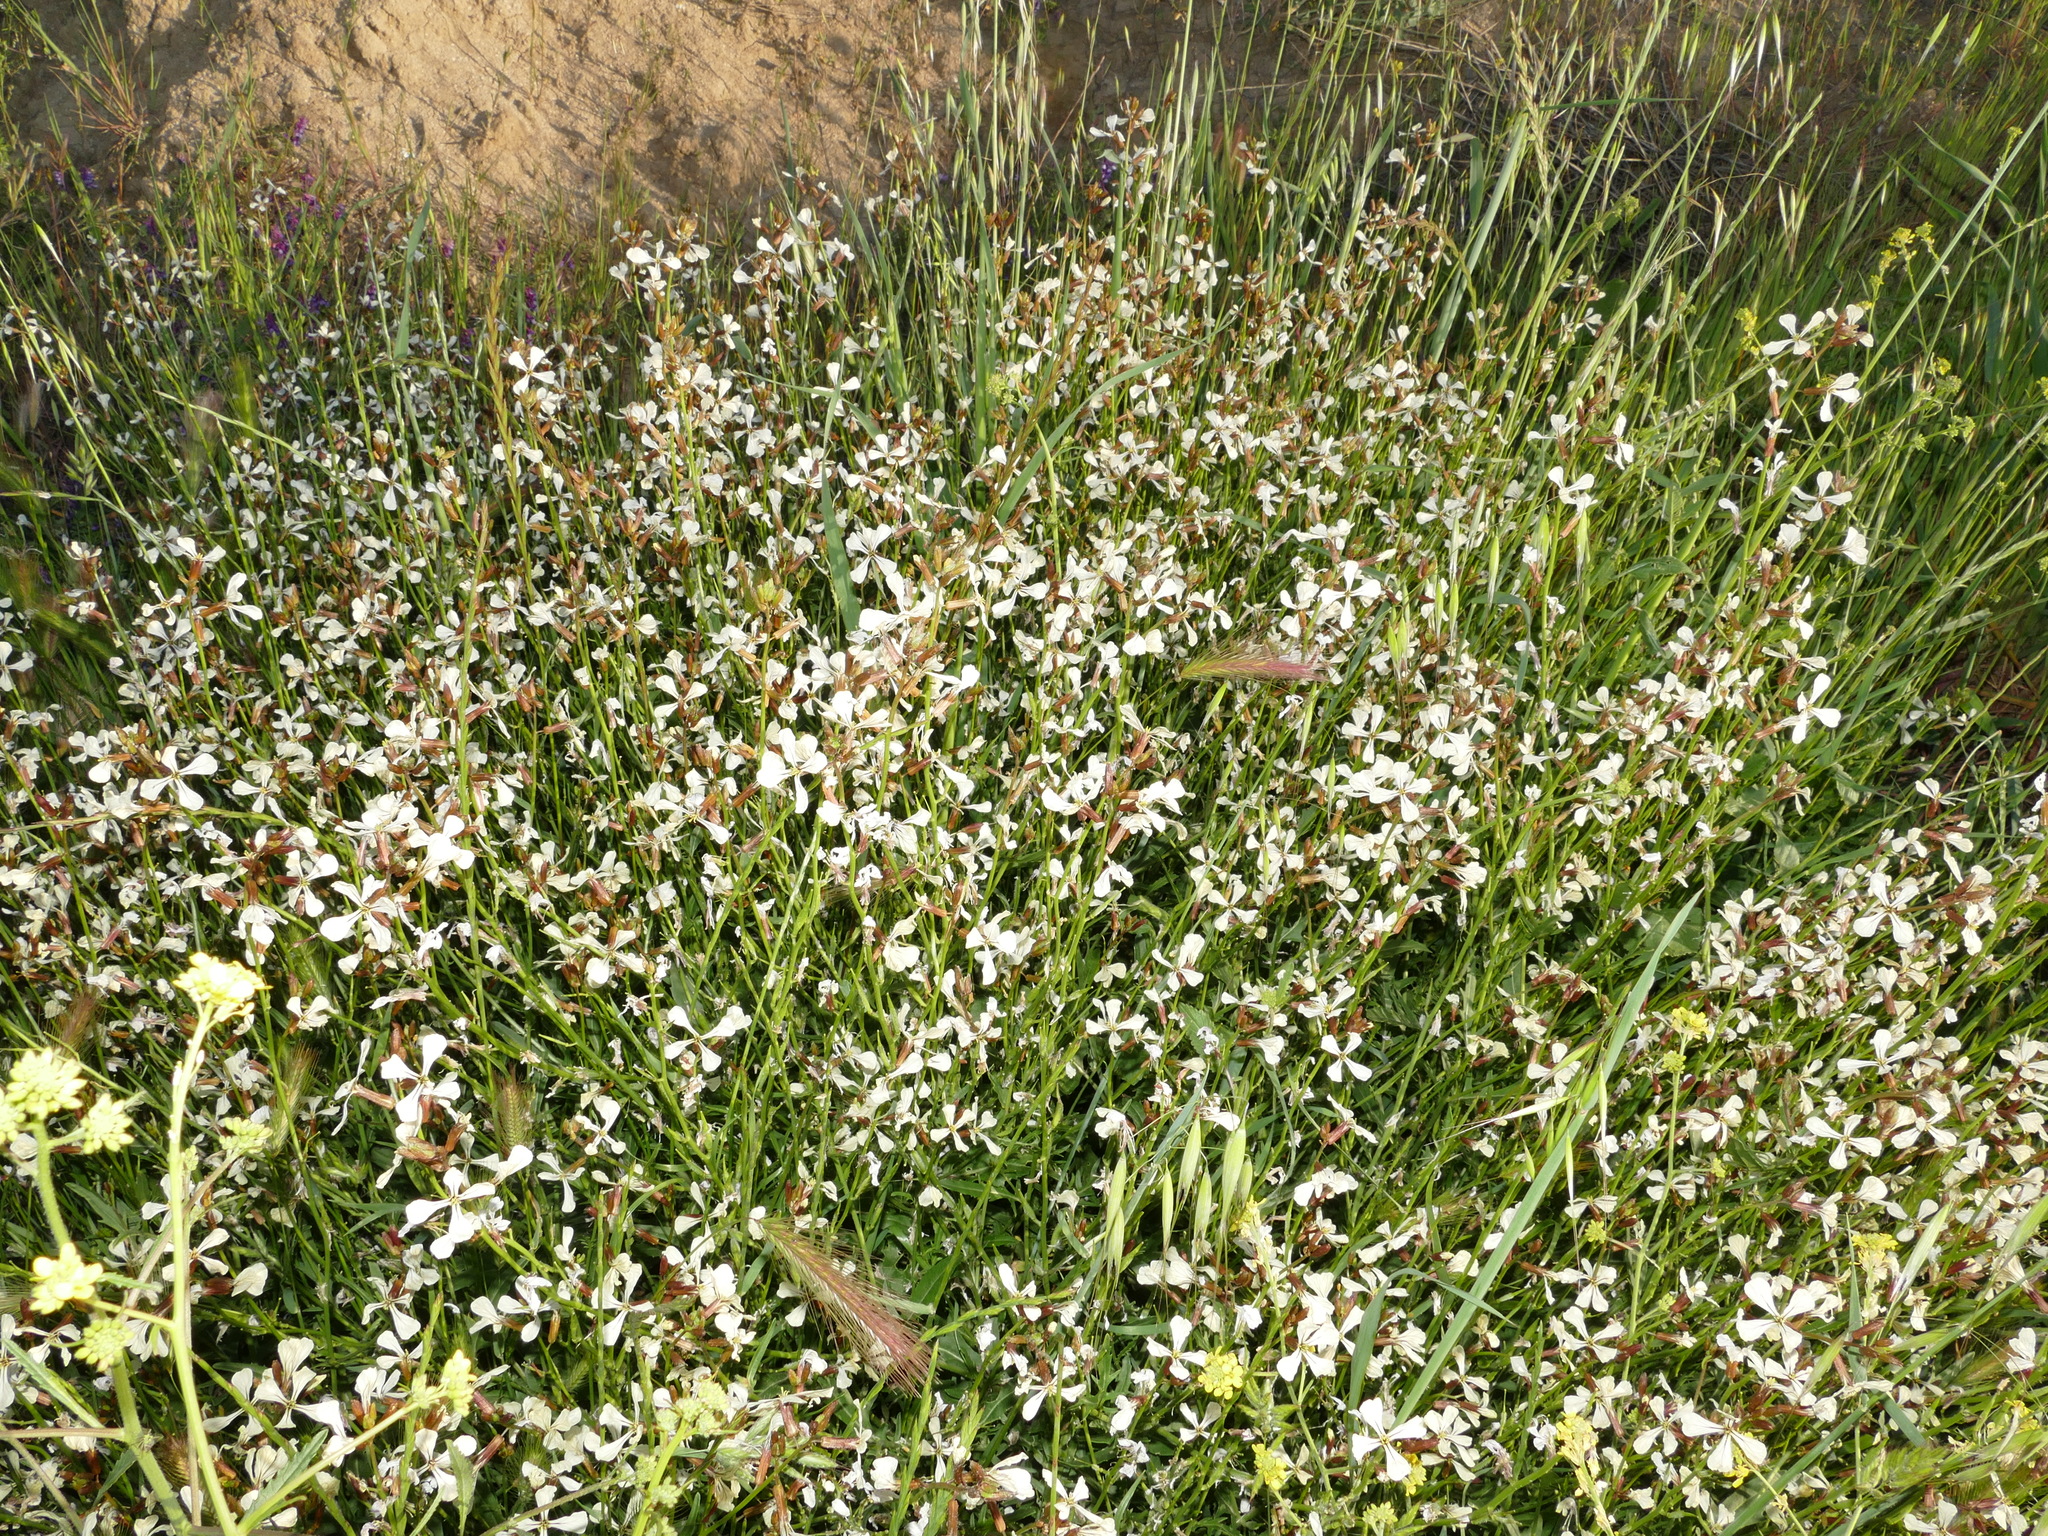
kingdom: Plantae
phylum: Tracheophyta
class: Magnoliopsida
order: Brassicales
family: Brassicaceae
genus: Eruca
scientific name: Eruca vesicaria
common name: Garden rocket
